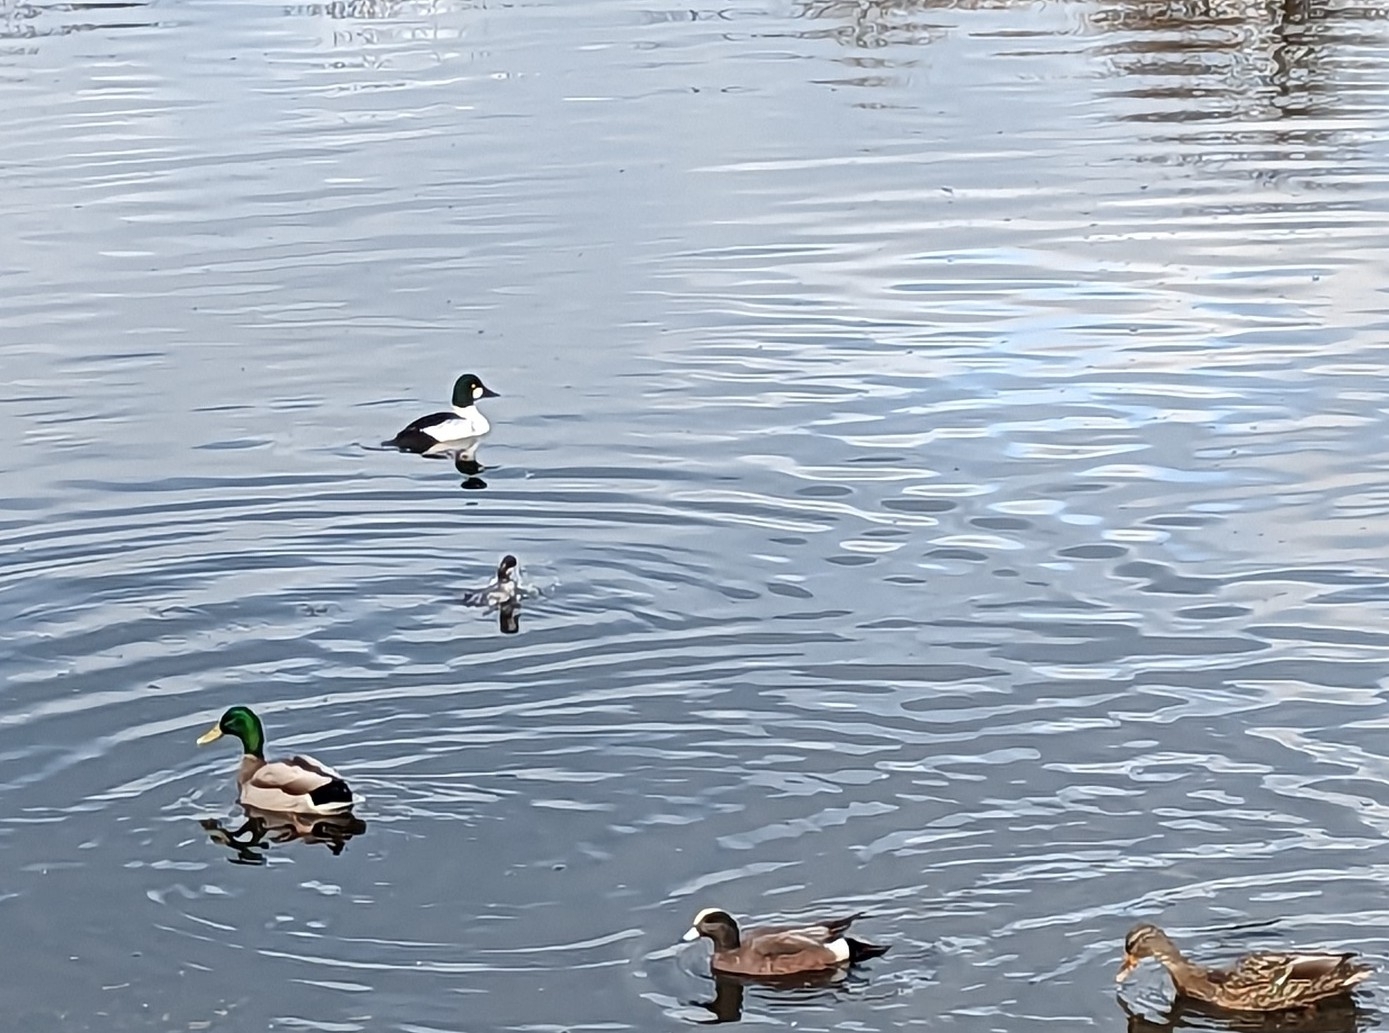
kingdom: Animalia
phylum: Chordata
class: Aves
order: Anseriformes
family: Anatidae
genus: Bucephala
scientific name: Bucephala clangula
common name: Common goldeneye
